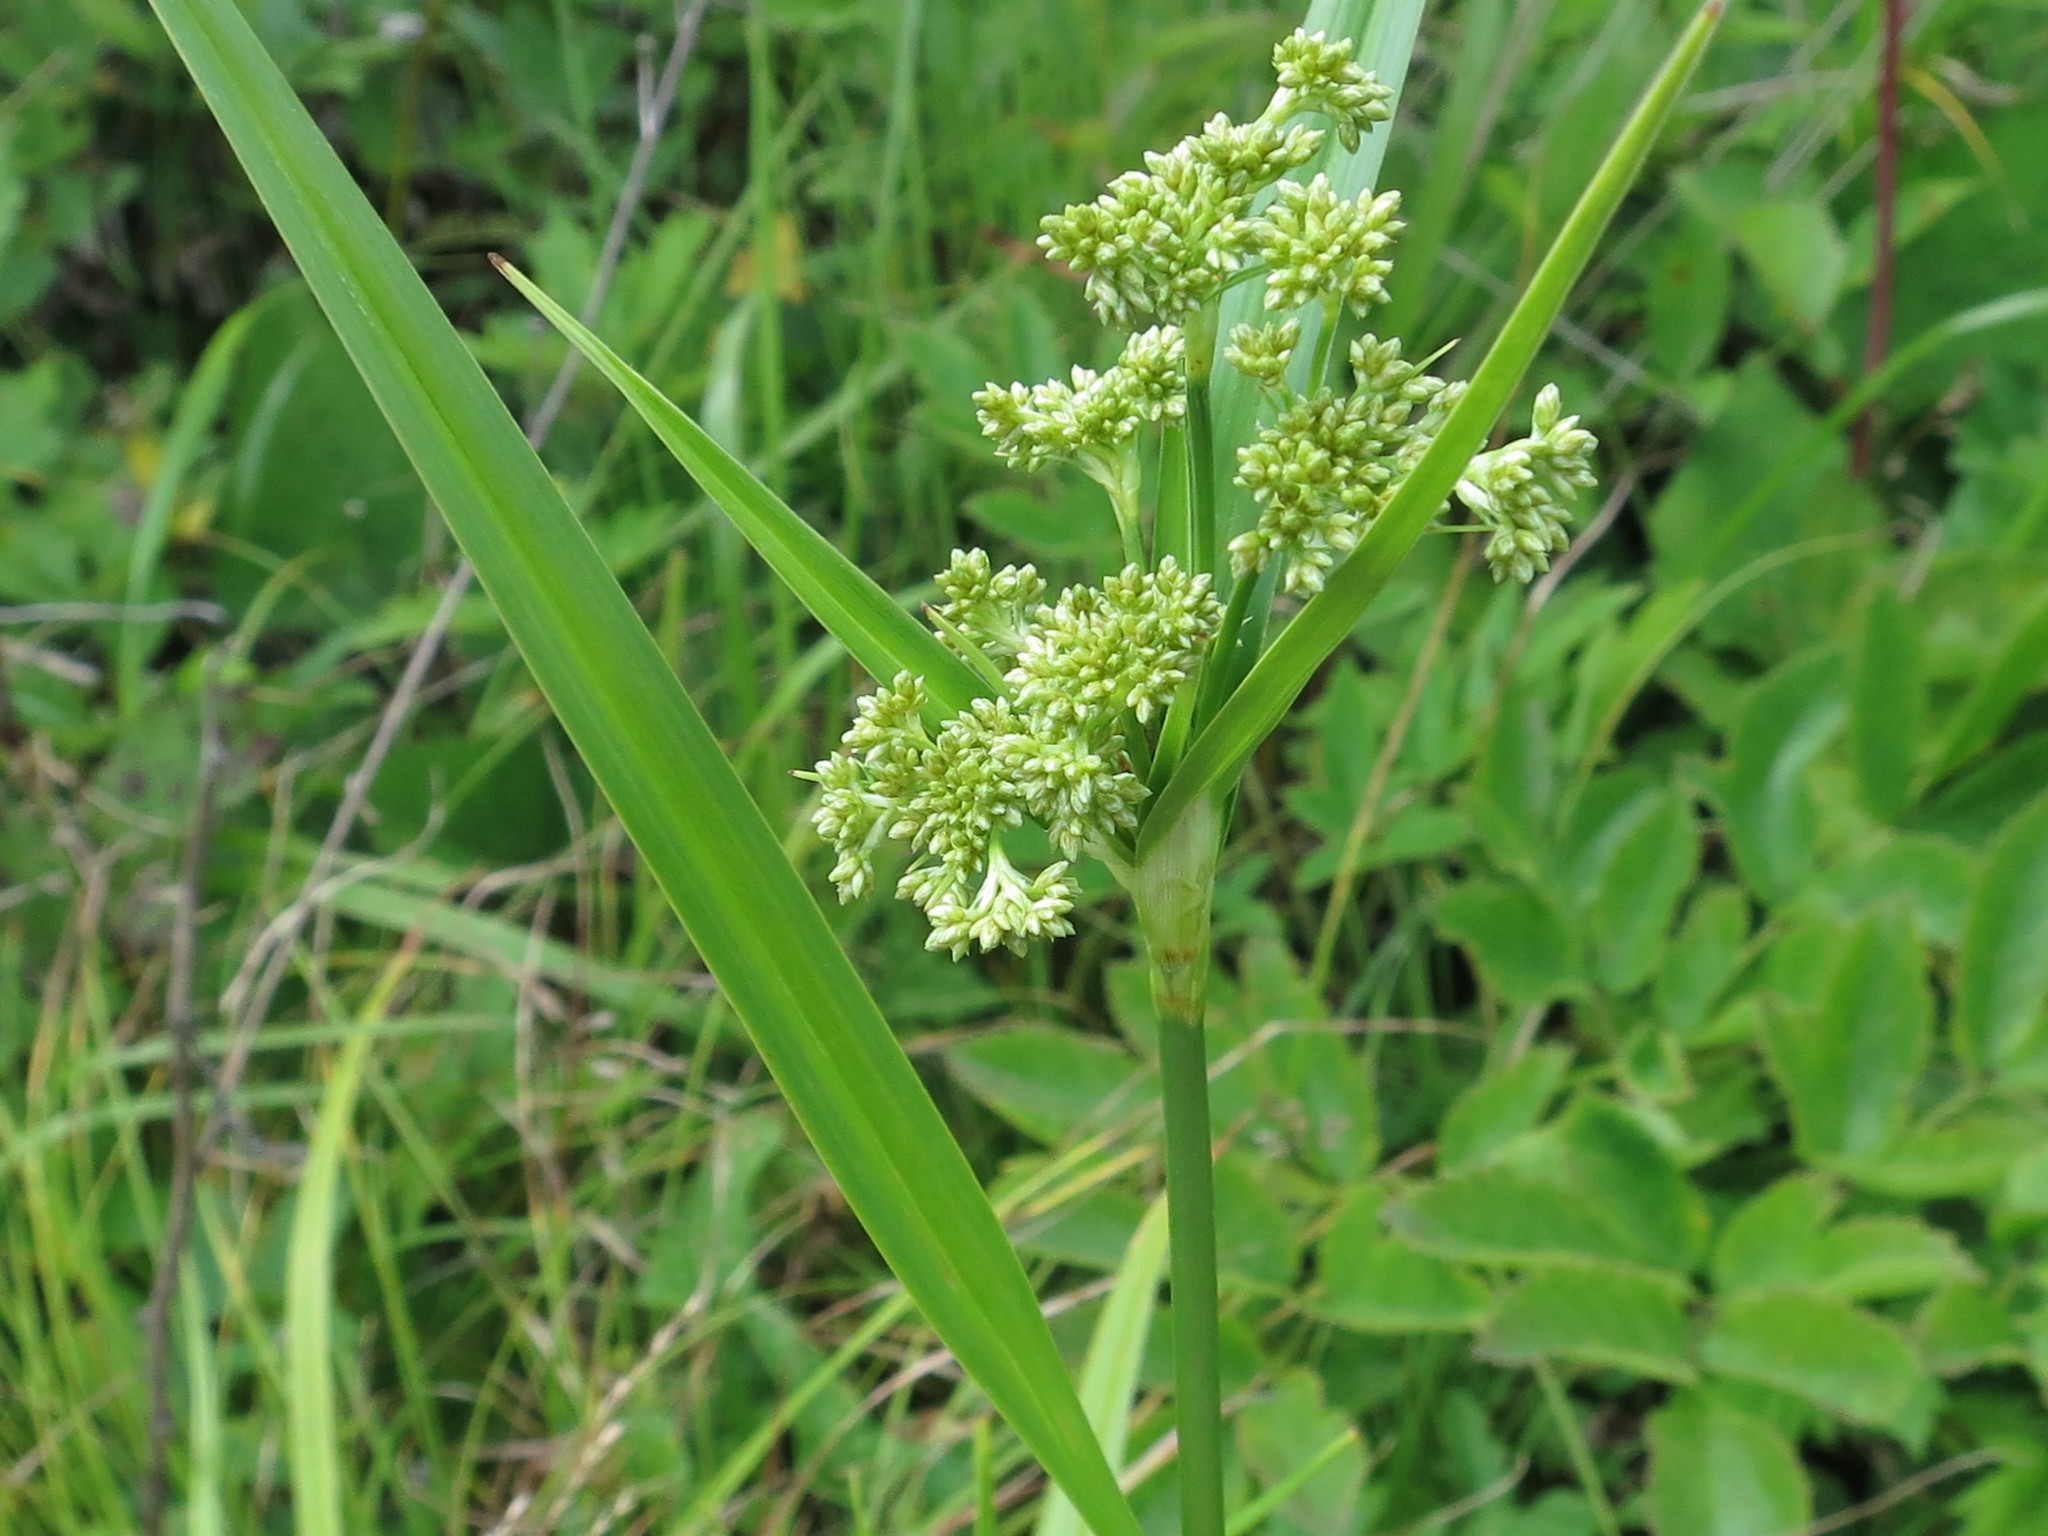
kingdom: Plantae
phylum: Tracheophyta
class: Liliopsida
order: Poales
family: Cyperaceae
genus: Scirpus
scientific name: Scirpus lushanensis
